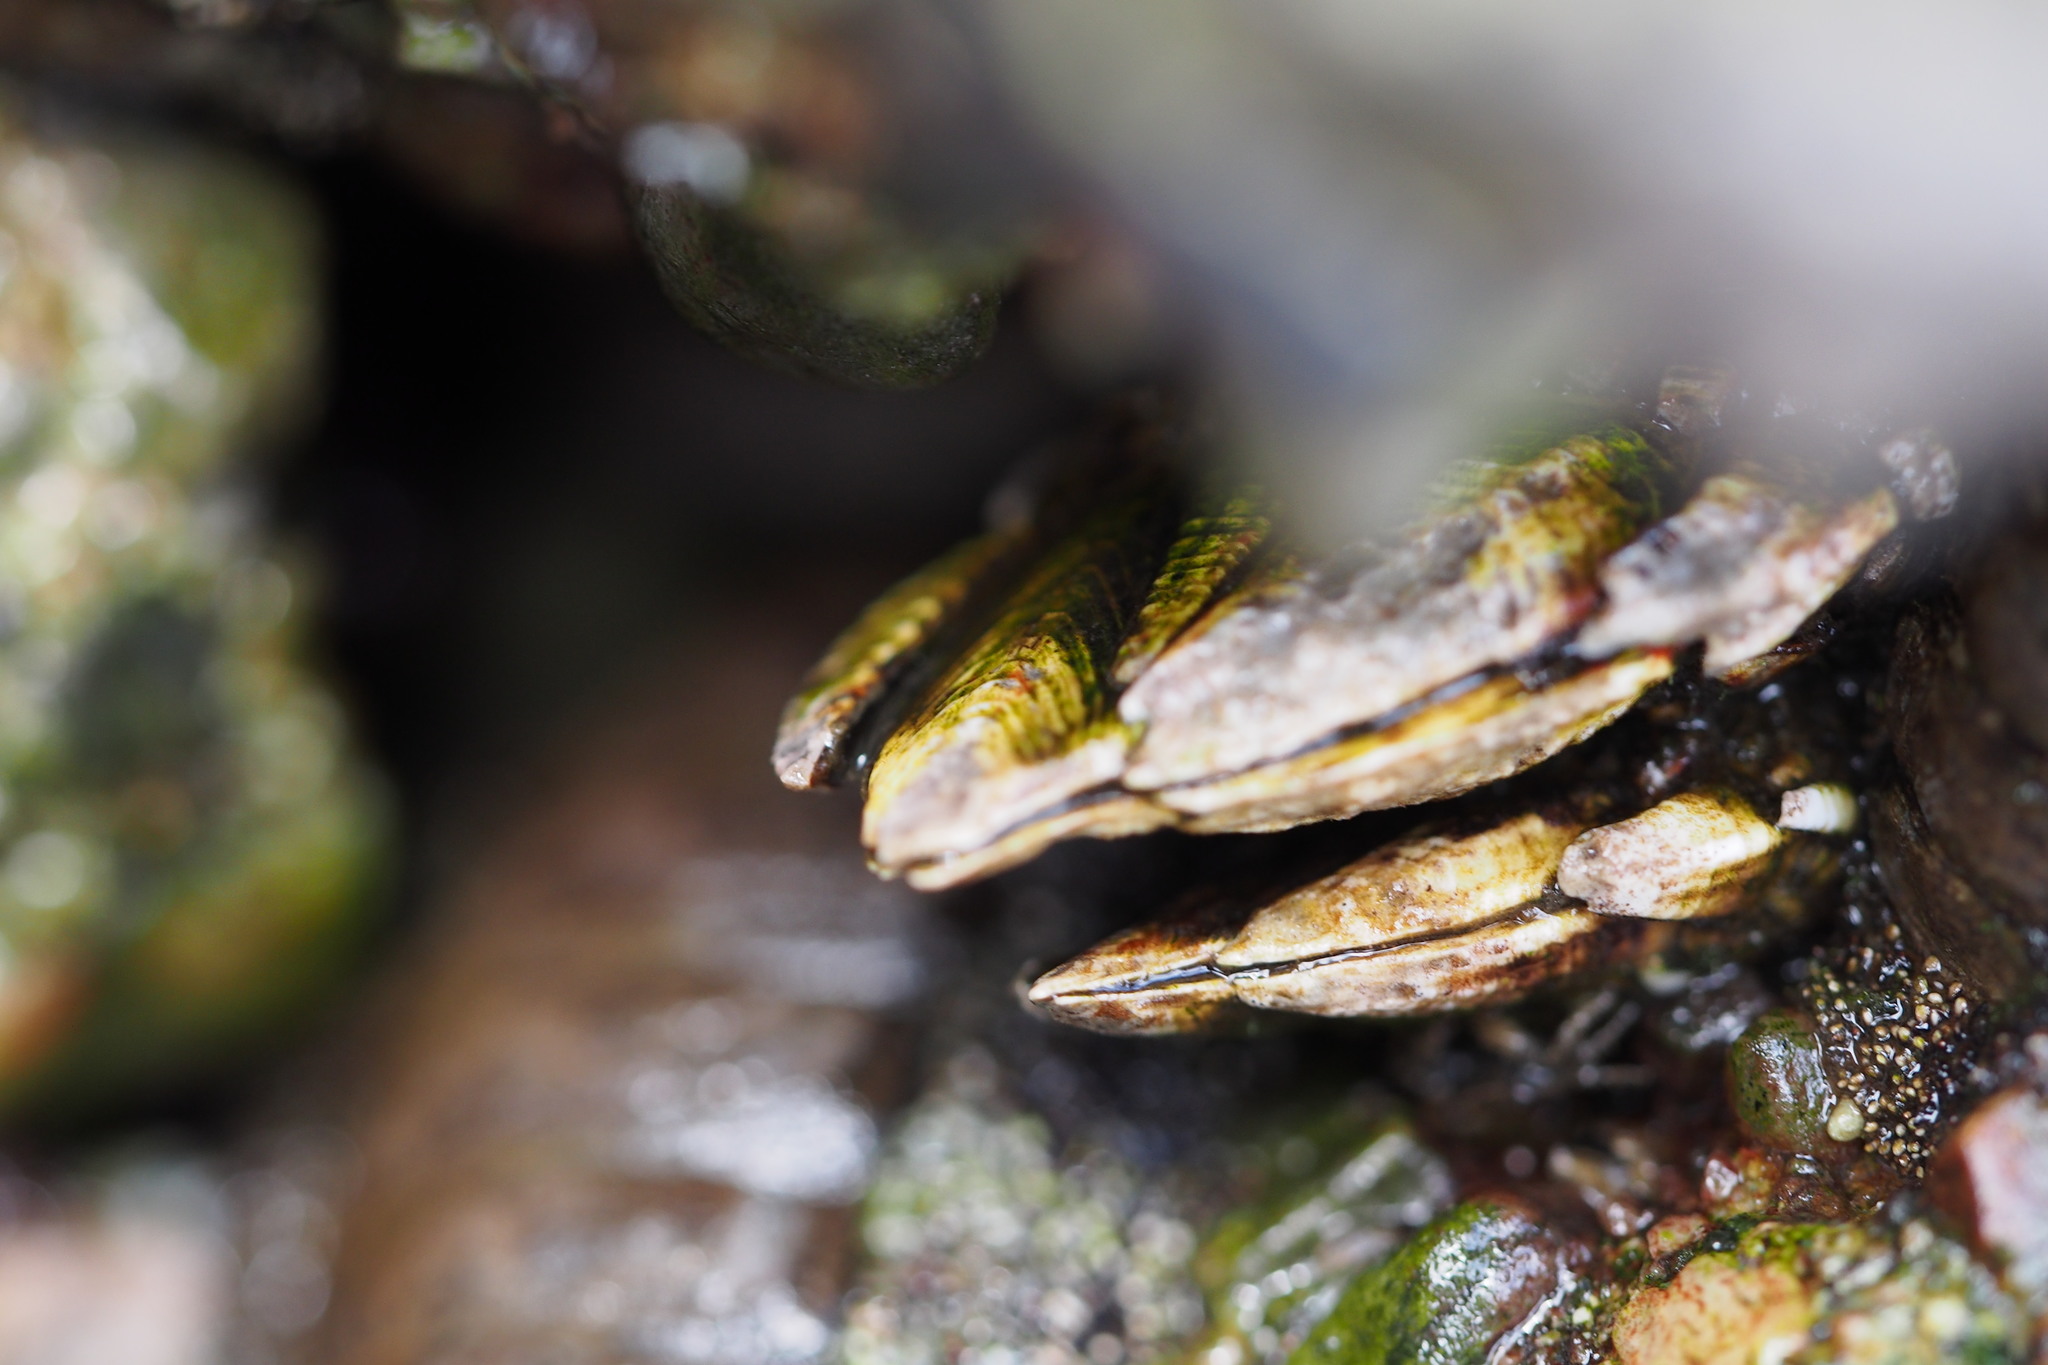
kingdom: Animalia
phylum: Arthropoda
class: Maxillopoda
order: Pedunculata
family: Pollicipedidae
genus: Capitulum
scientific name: Capitulum mitella
